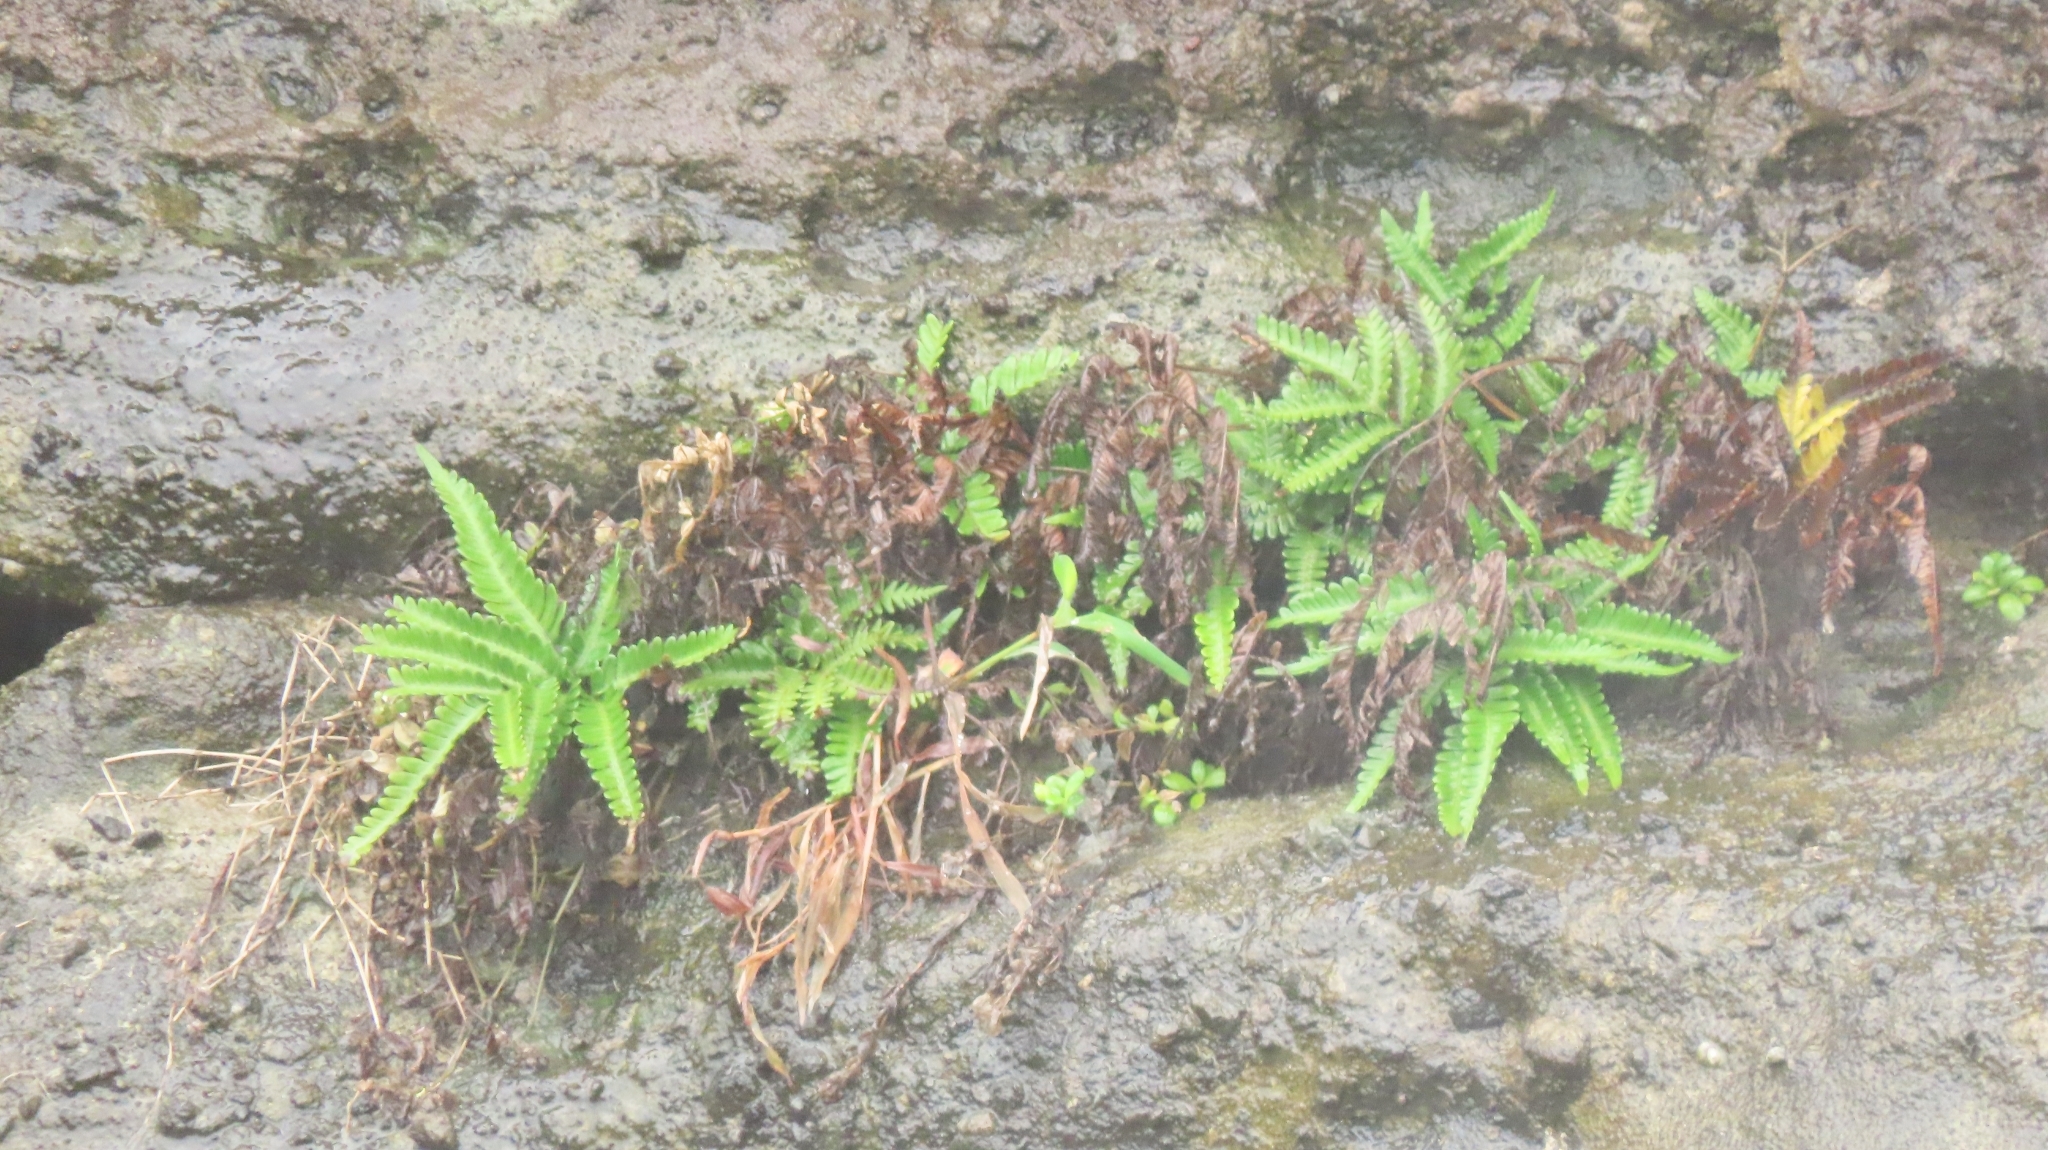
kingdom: Plantae
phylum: Tracheophyta
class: Polypodiopsida
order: Polypodiales
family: Pteridaceae
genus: Pteris
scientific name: Pteris minor
